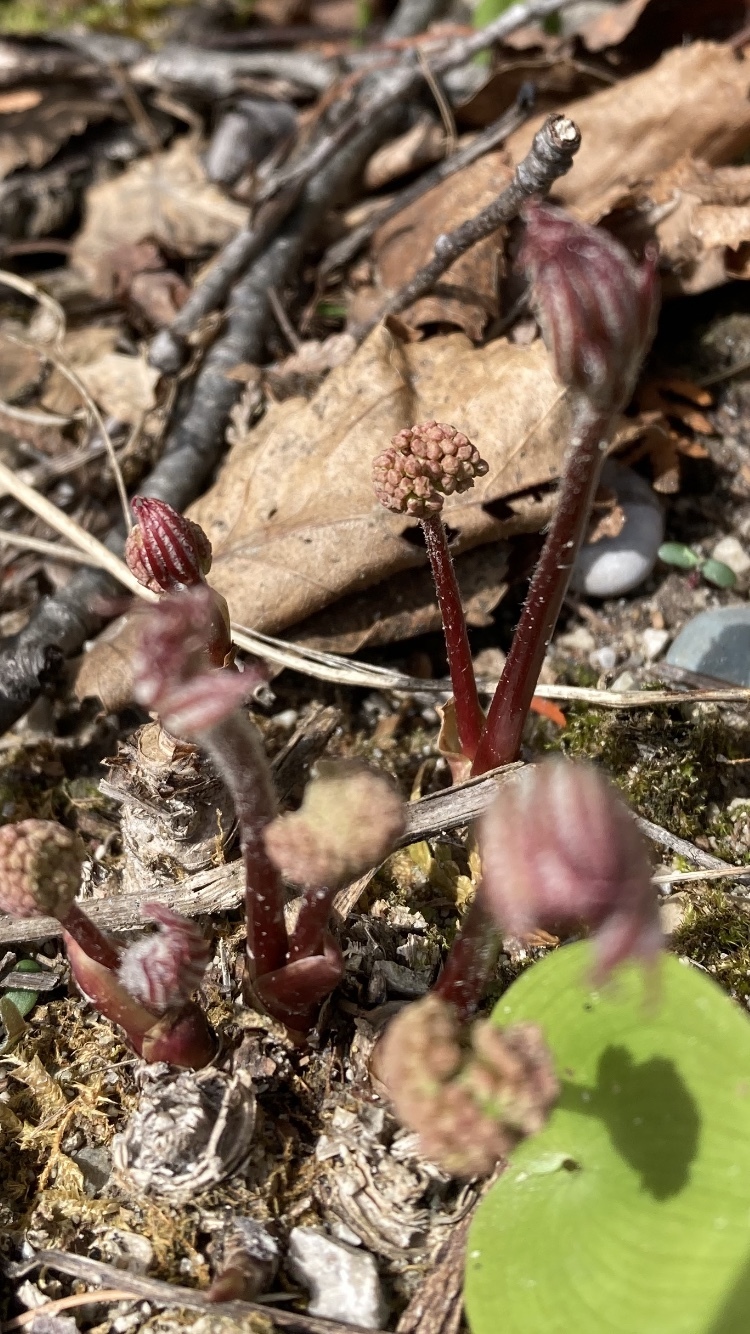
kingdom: Plantae
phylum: Tracheophyta
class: Magnoliopsida
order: Apiales
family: Araliaceae
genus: Aralia
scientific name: Aralia nudicaulis
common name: Wild sarsaparilla
